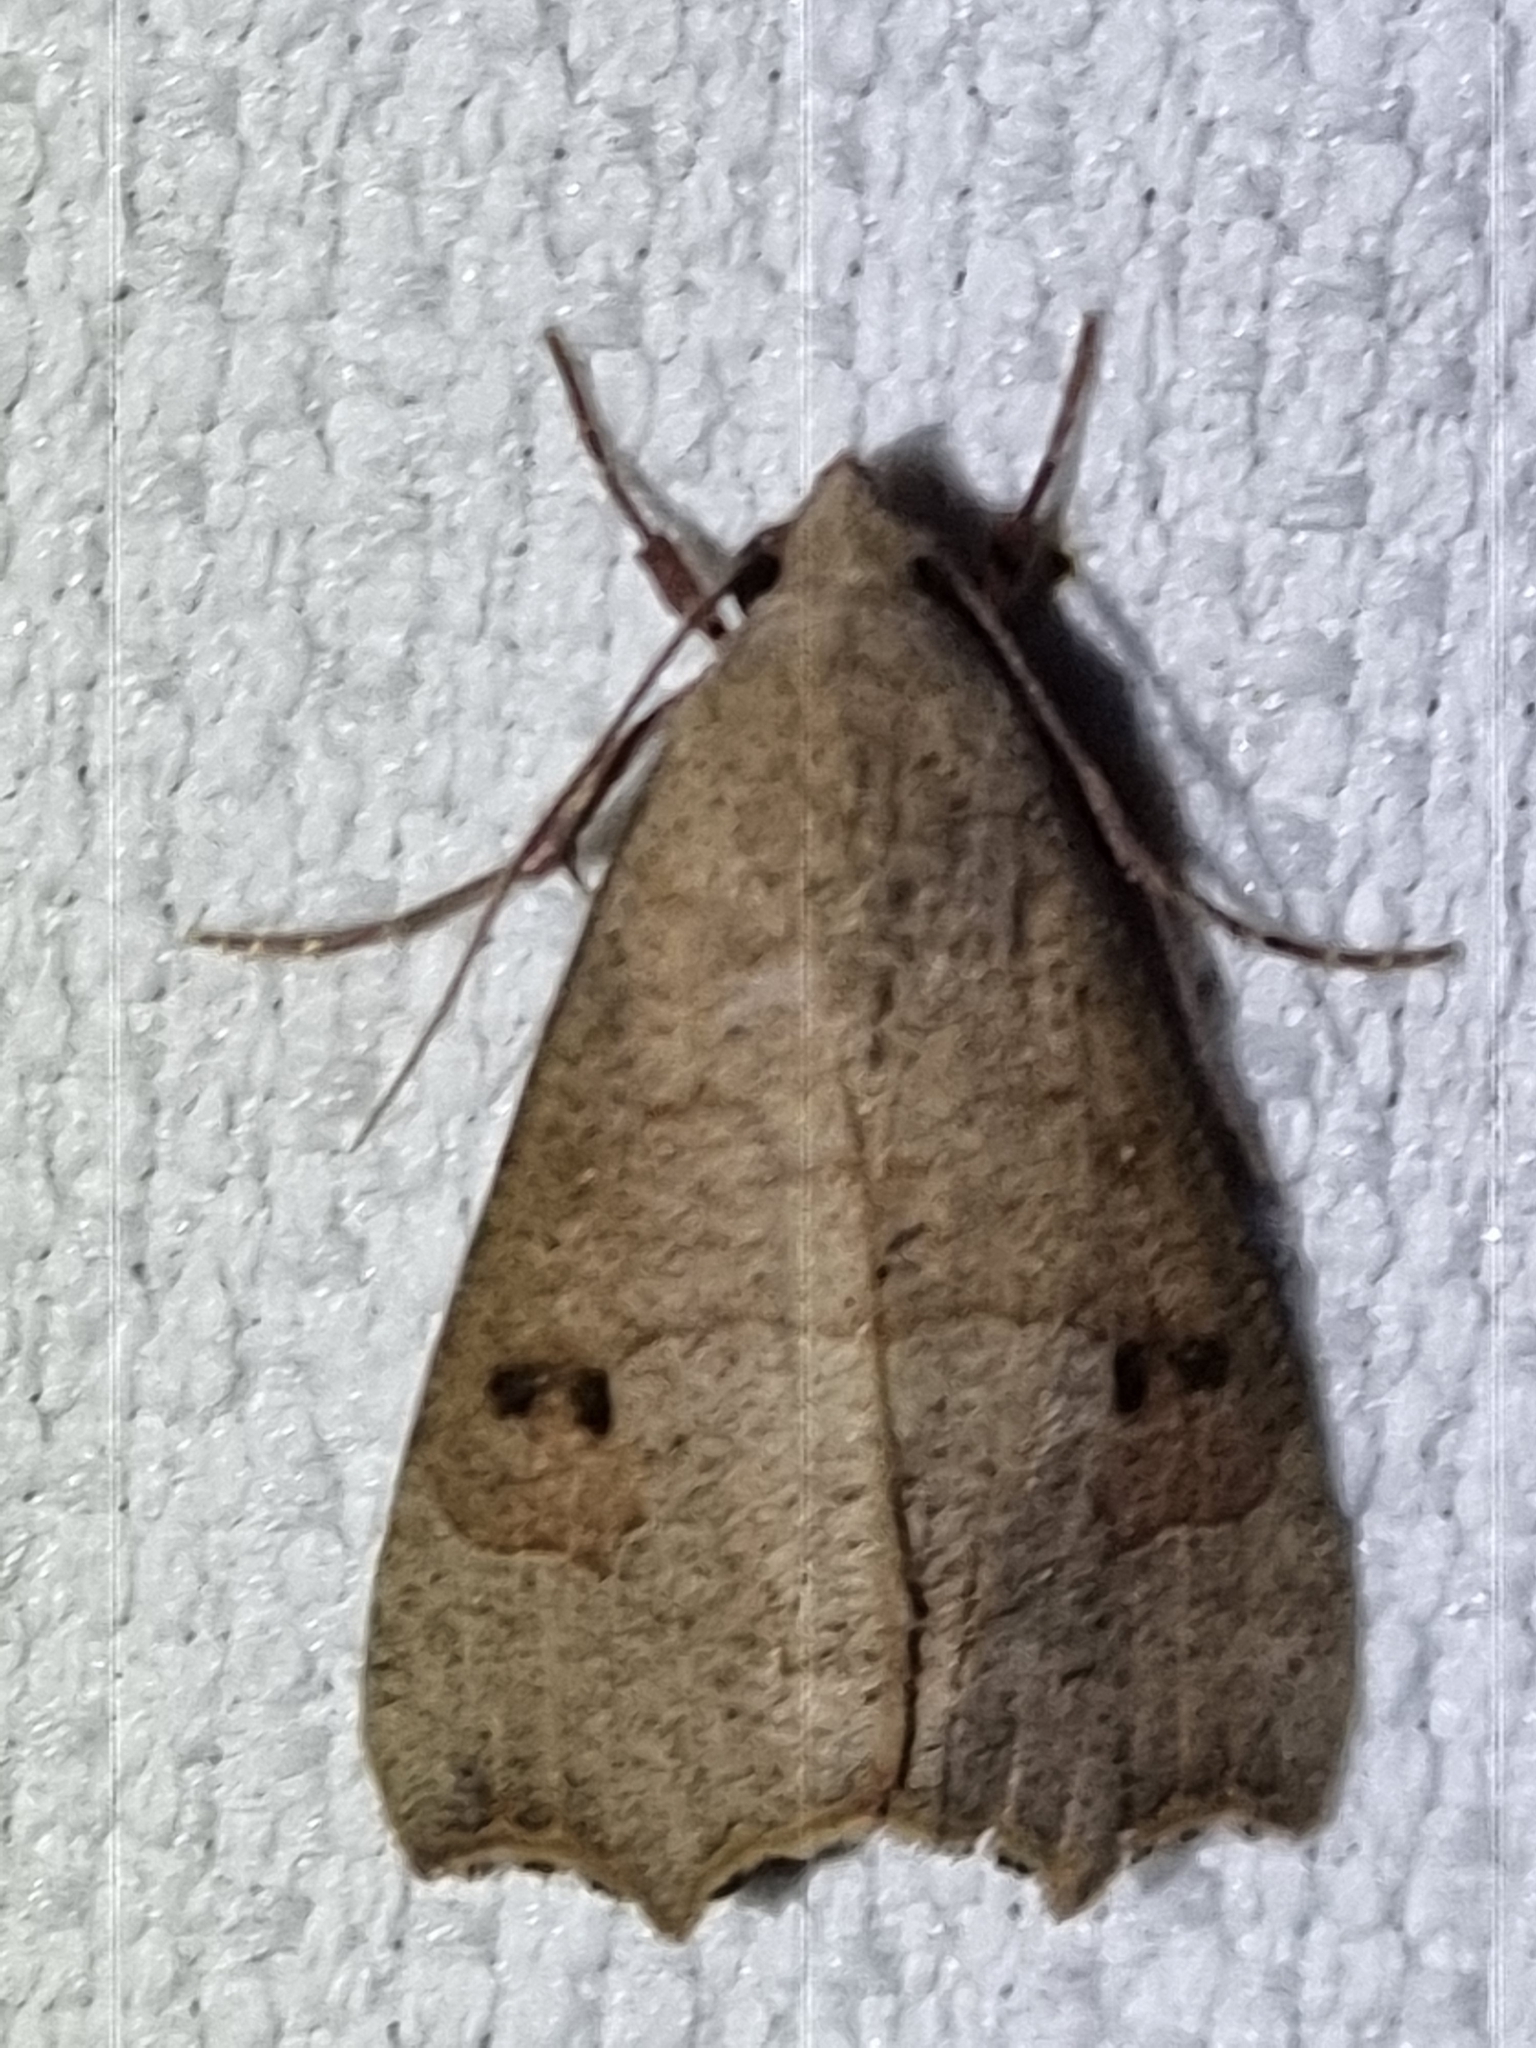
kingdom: Animalia
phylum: Arthropoda
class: Insecta
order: Lepidoptera
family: Erebidae
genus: Gonitis
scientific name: Gonitis involuta
